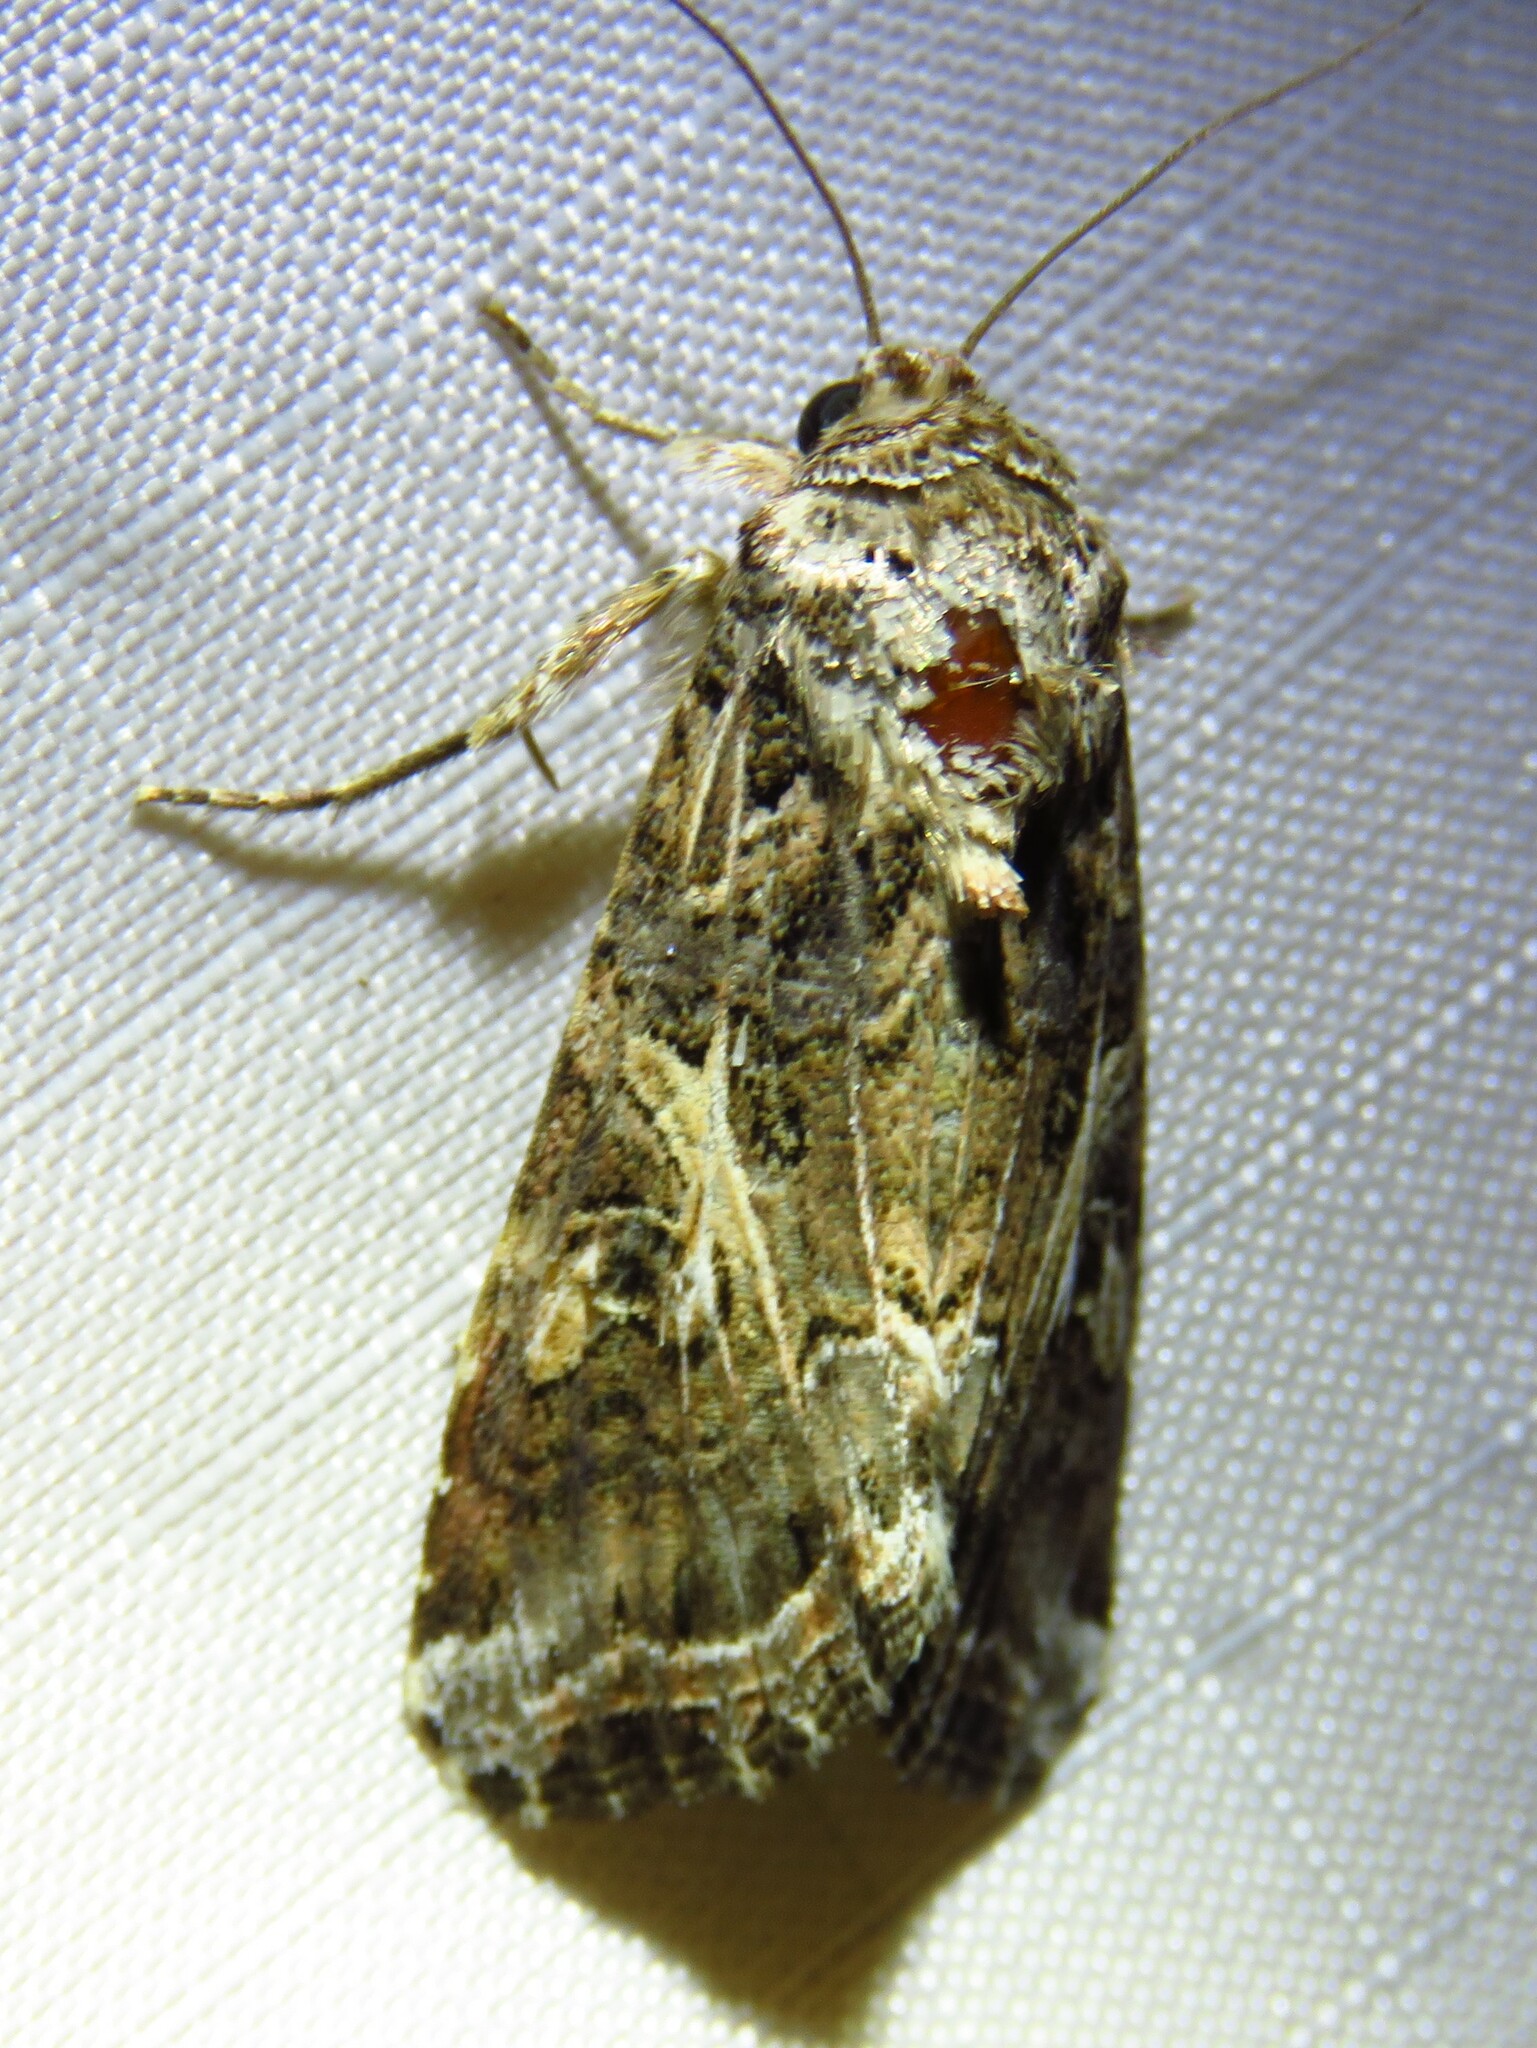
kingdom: Animalia
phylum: Arthropoda
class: Insecta
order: Lepidoptera
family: Noctuidae
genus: Spodoptera
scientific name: Spodoptera ornithogalli
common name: Yellow-striped armyworm
